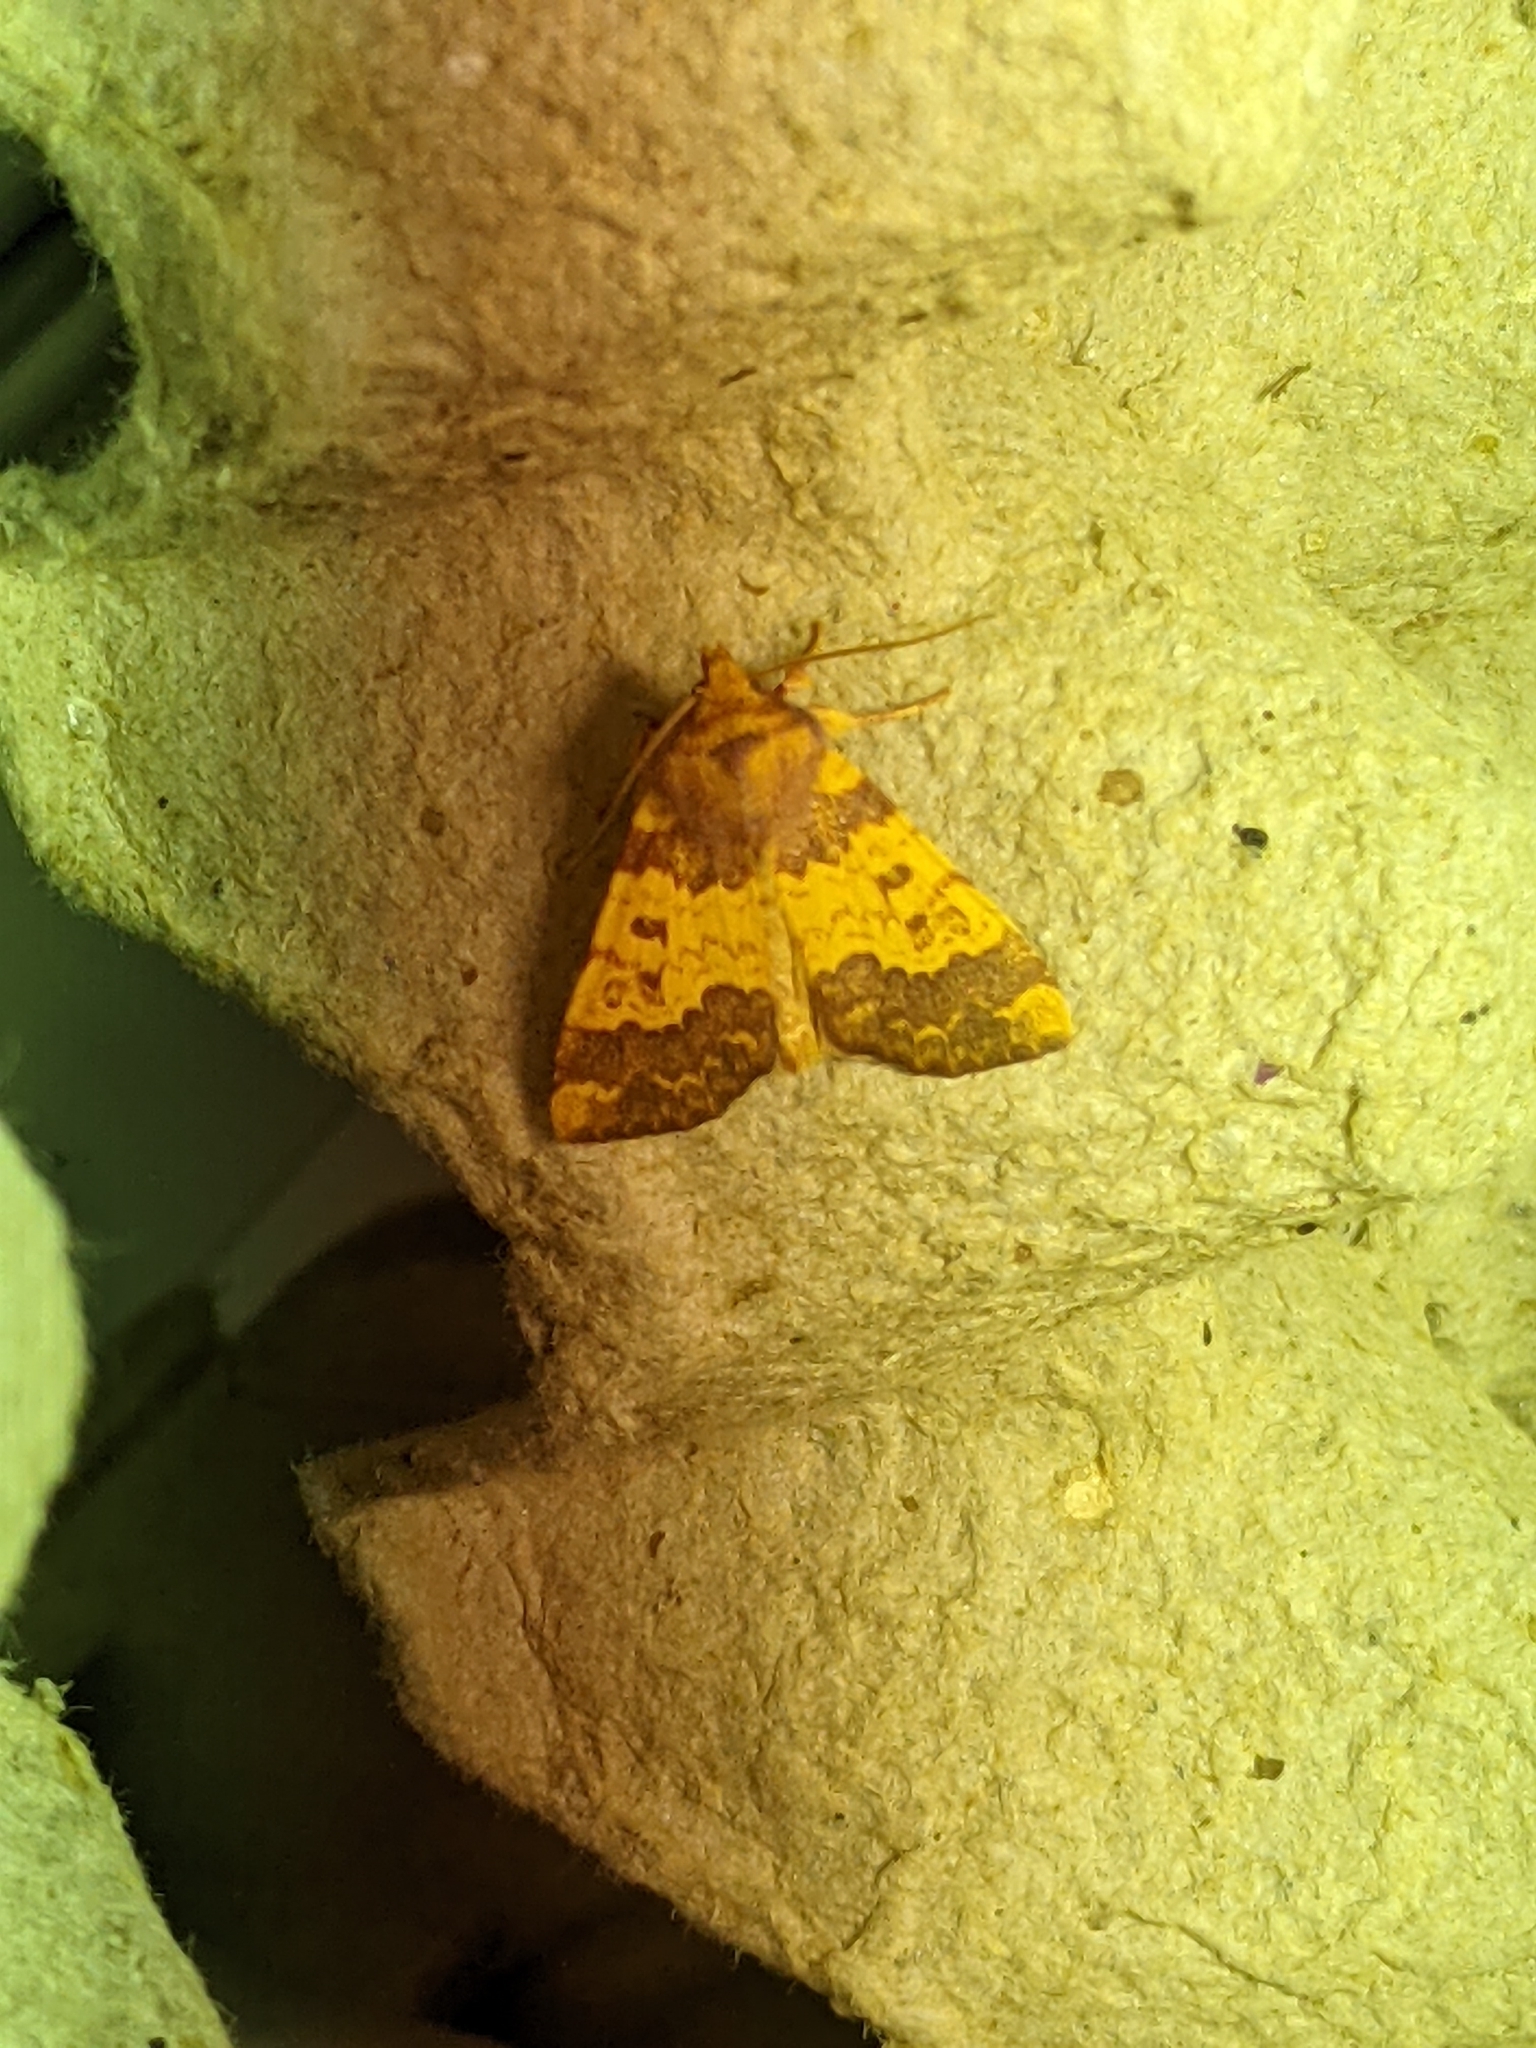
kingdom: Animalia
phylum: Arthropoda
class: Insecta
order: Lepidoptera
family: Noctuidae
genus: Tiliacea
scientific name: Tiliacea aurago
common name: Barred sallow
